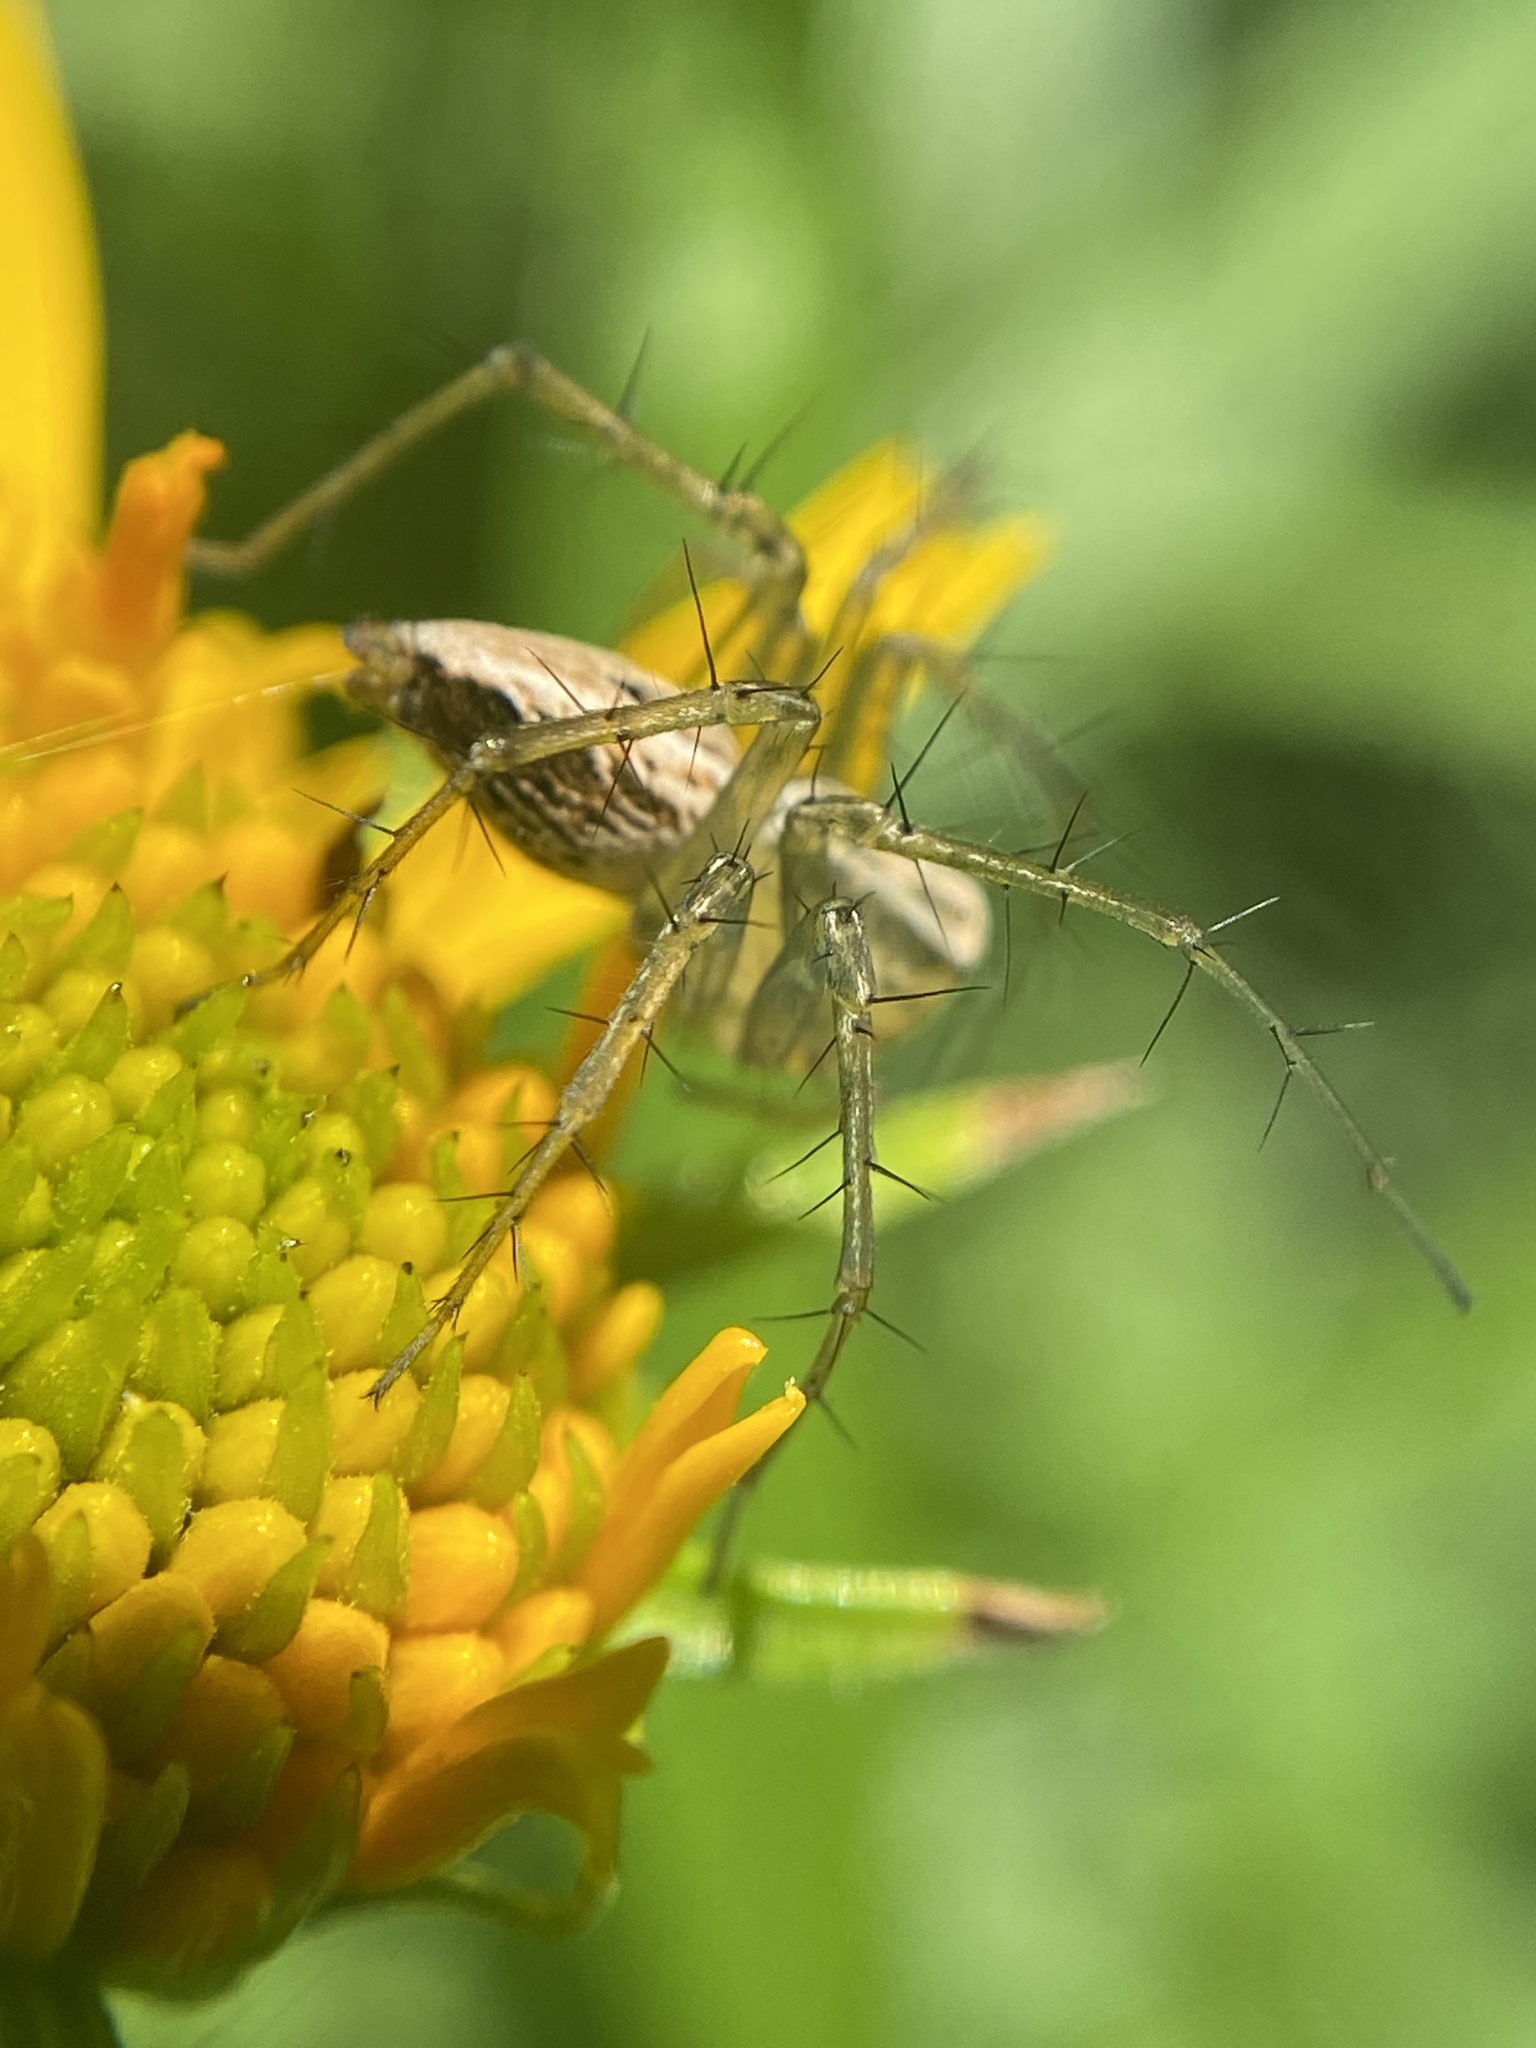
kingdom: Animalia
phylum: Arthropoda
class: Arachnida
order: Araneae
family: Oxyopidae
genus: Oxyopes
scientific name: Oxyopes salticus
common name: Lynx spiders
